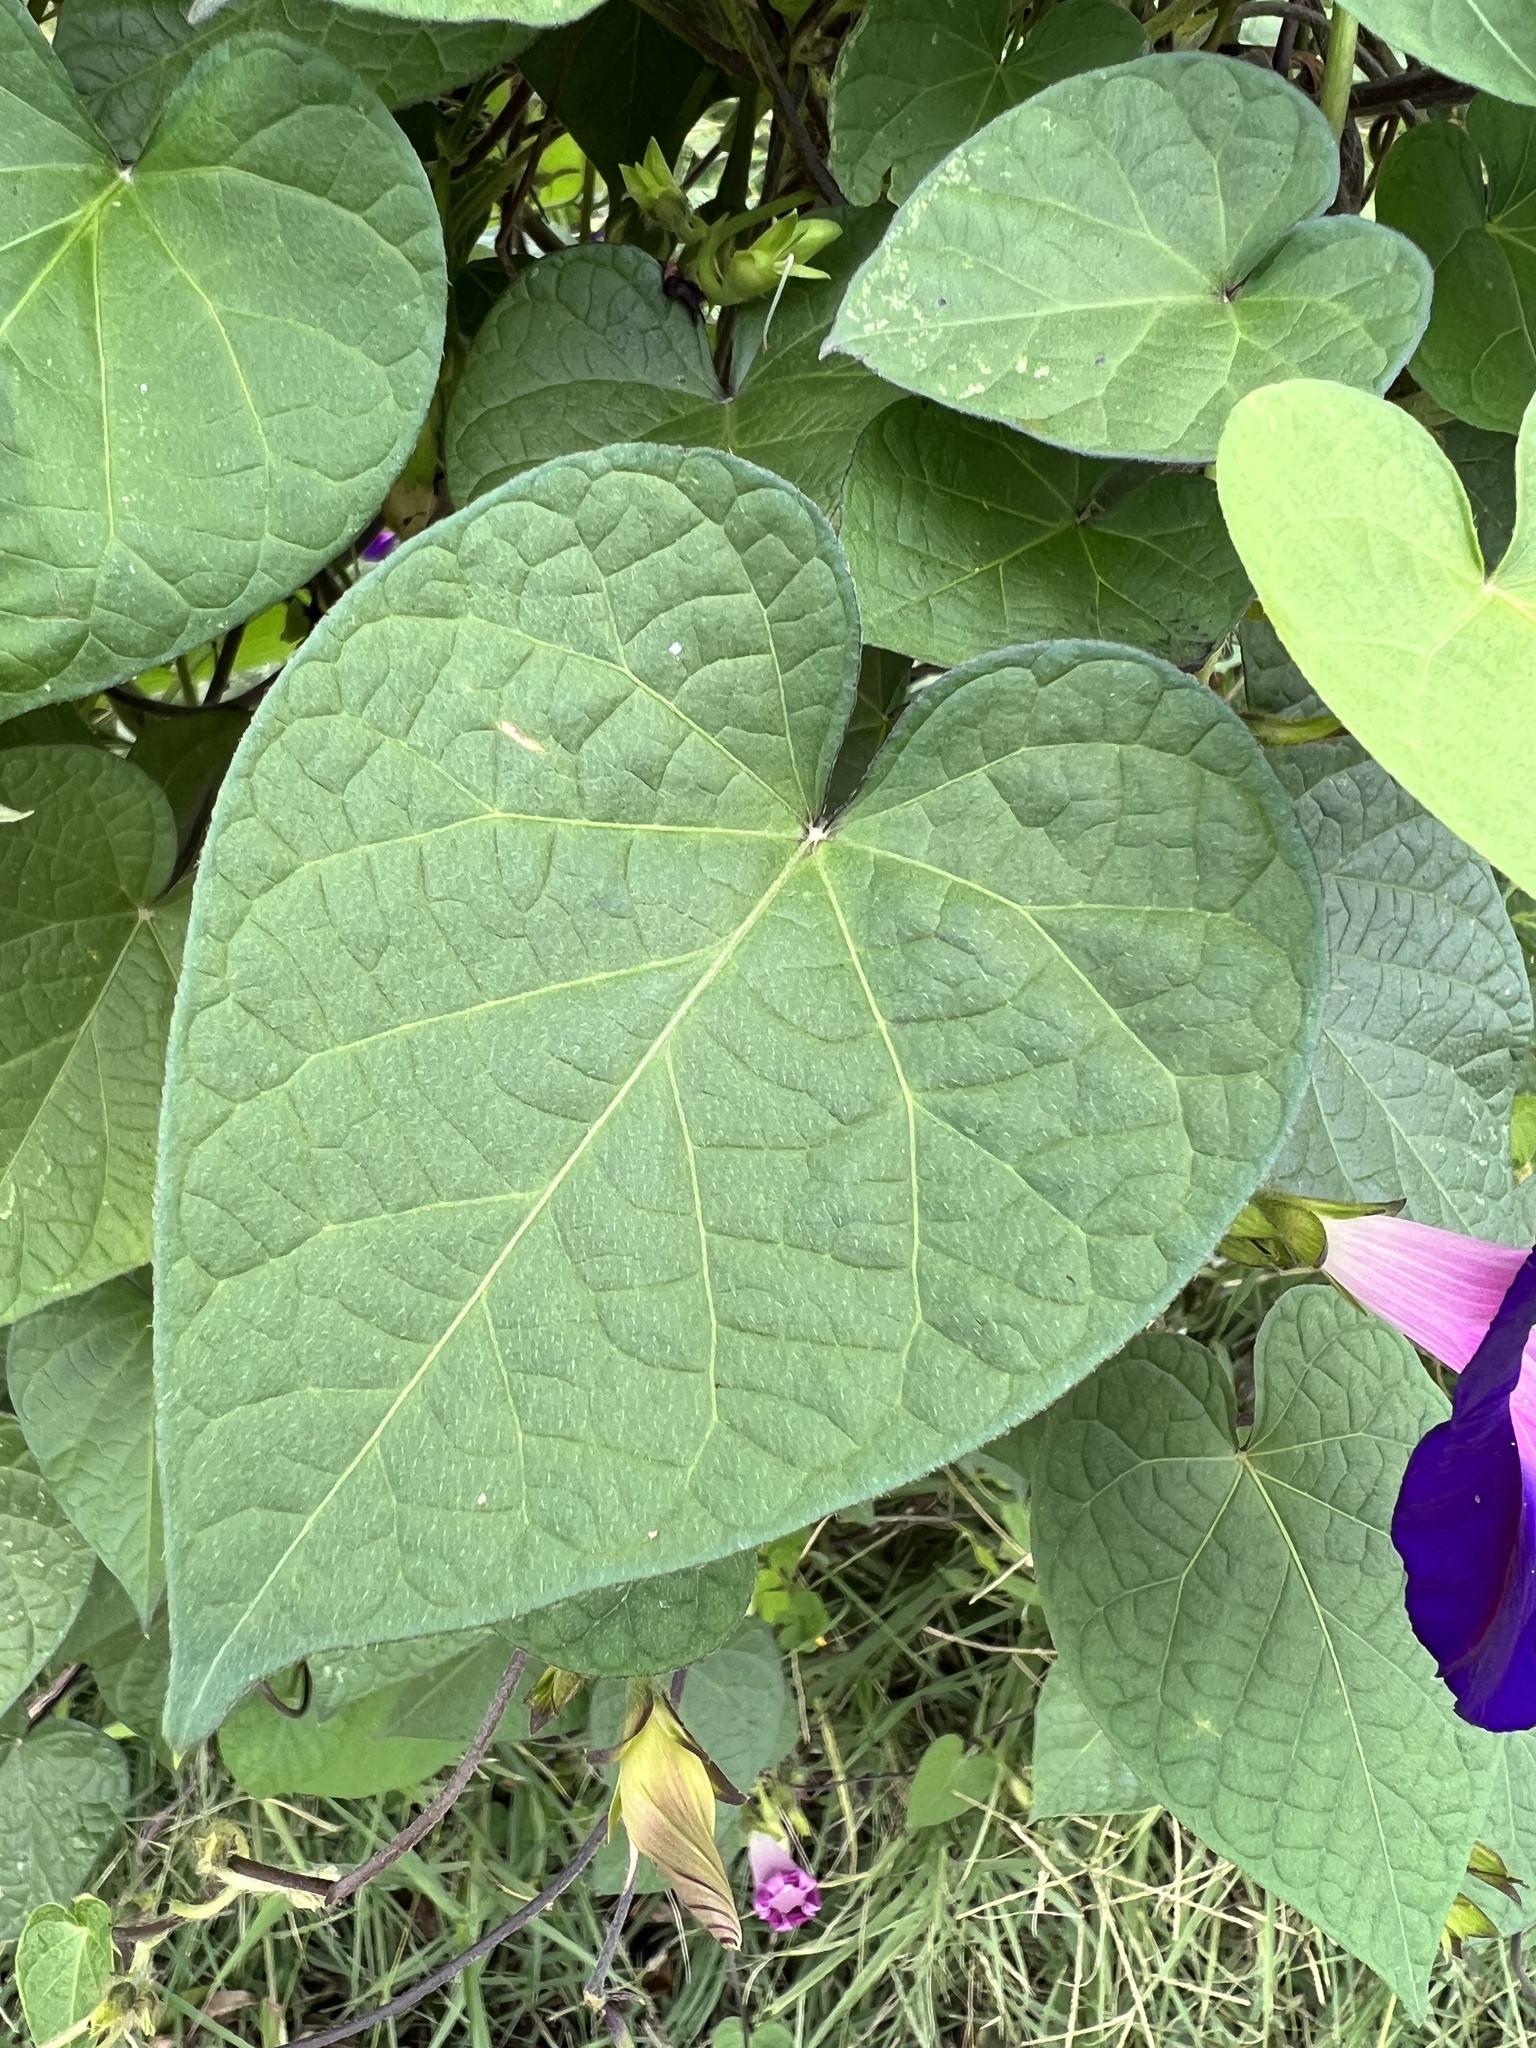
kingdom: Plantae
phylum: Tracheophyta
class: Magnoliopsida
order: Solanales
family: Convolvulaceae
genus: Ipomoea
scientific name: Ipomoea purpurea
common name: Common morning-glory
